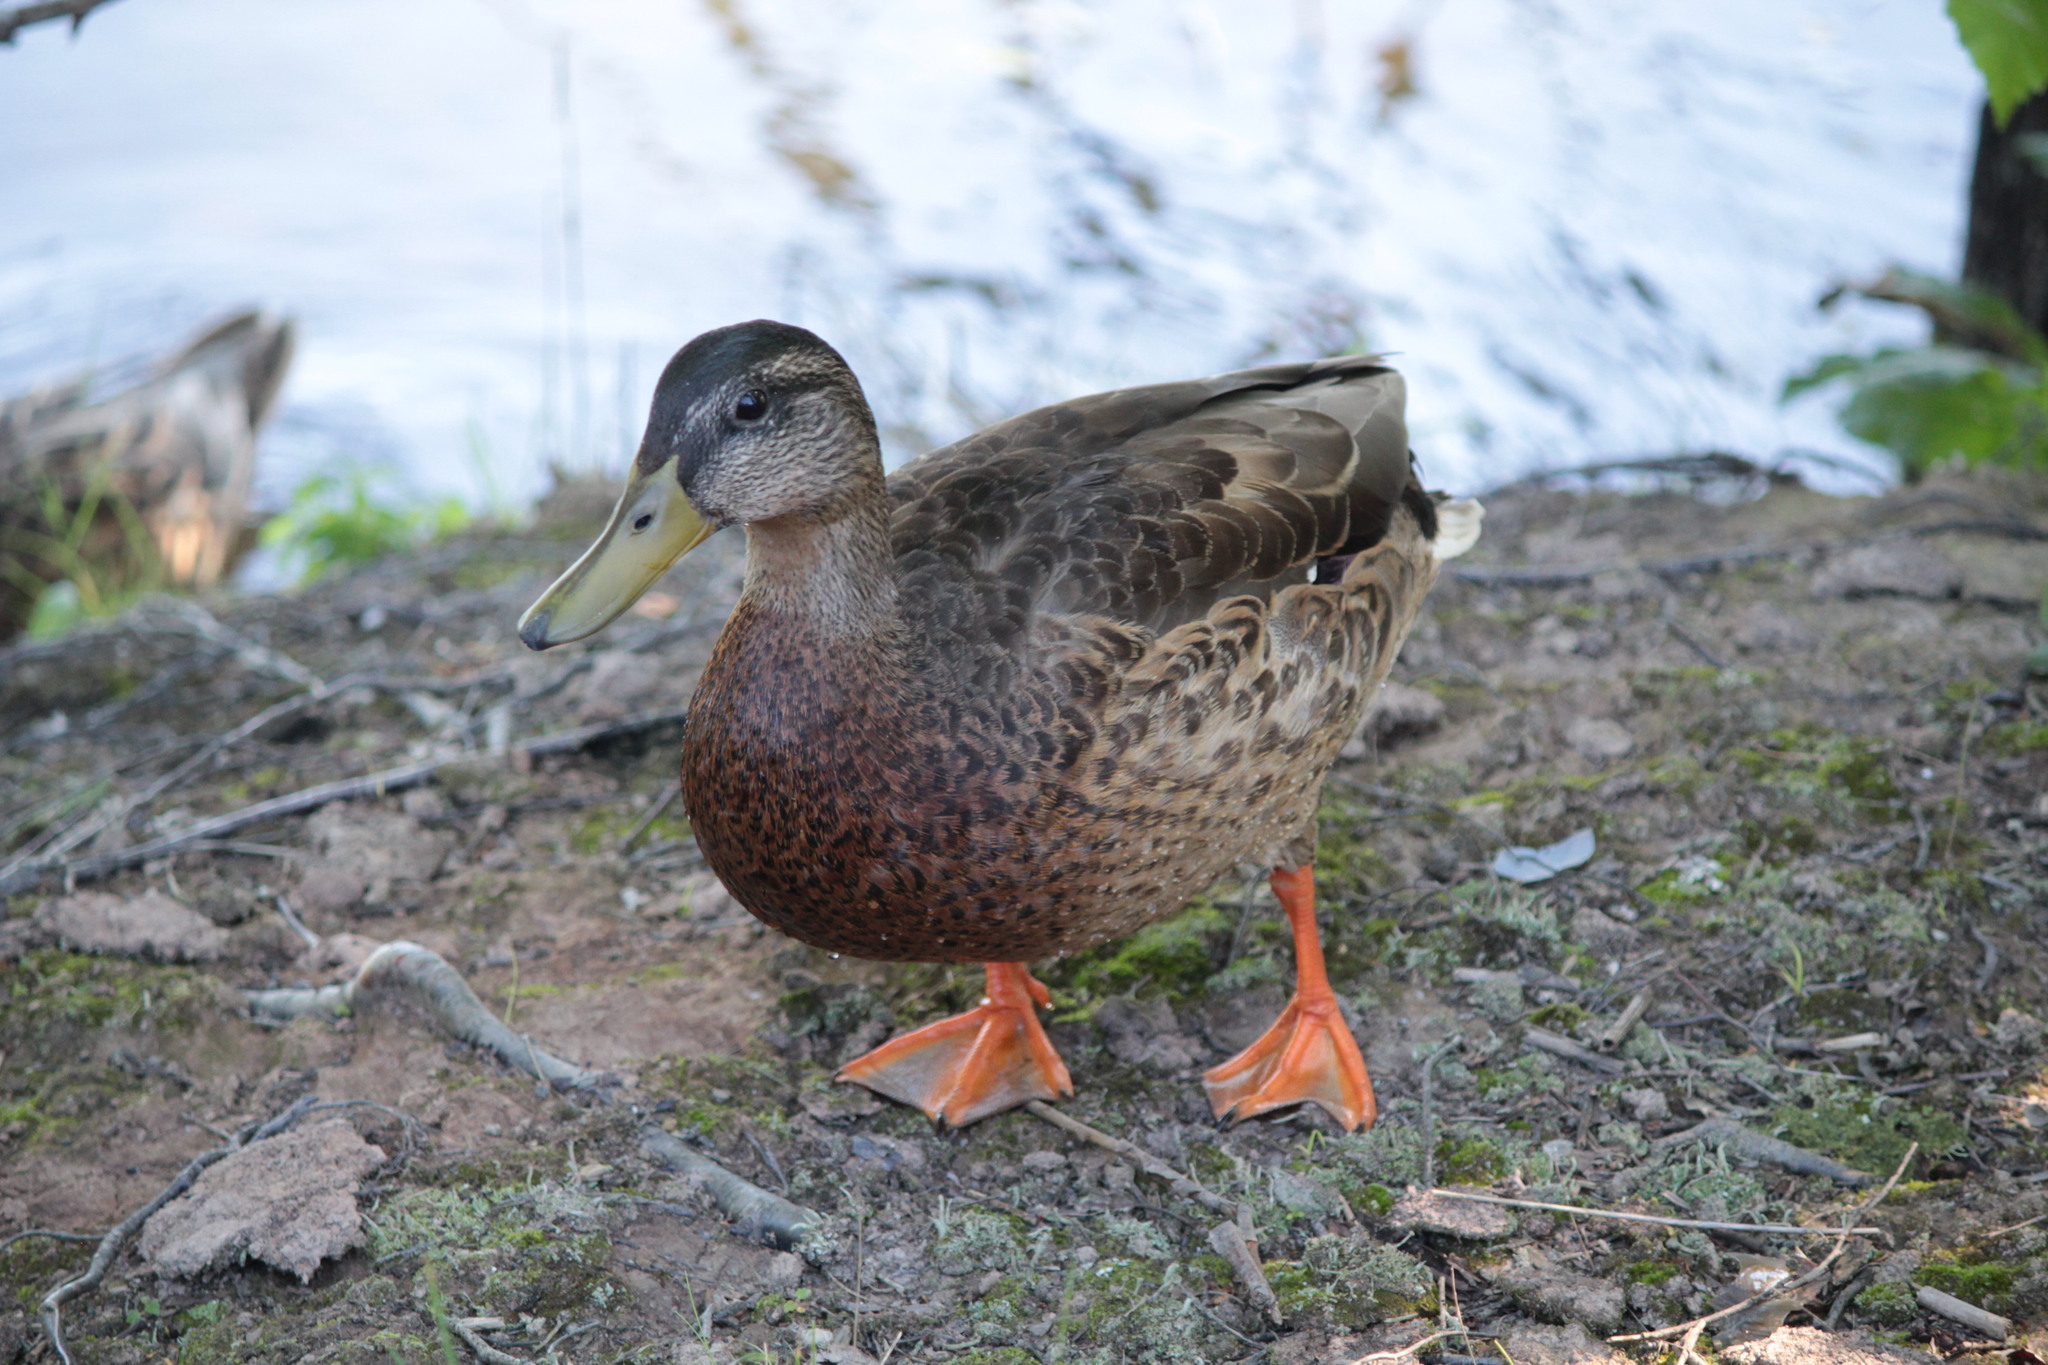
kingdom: Animalia
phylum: Chordata
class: Aves
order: Anseriformes
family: Anatidae
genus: Anas
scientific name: Anas platyrhynchos
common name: Mallard
